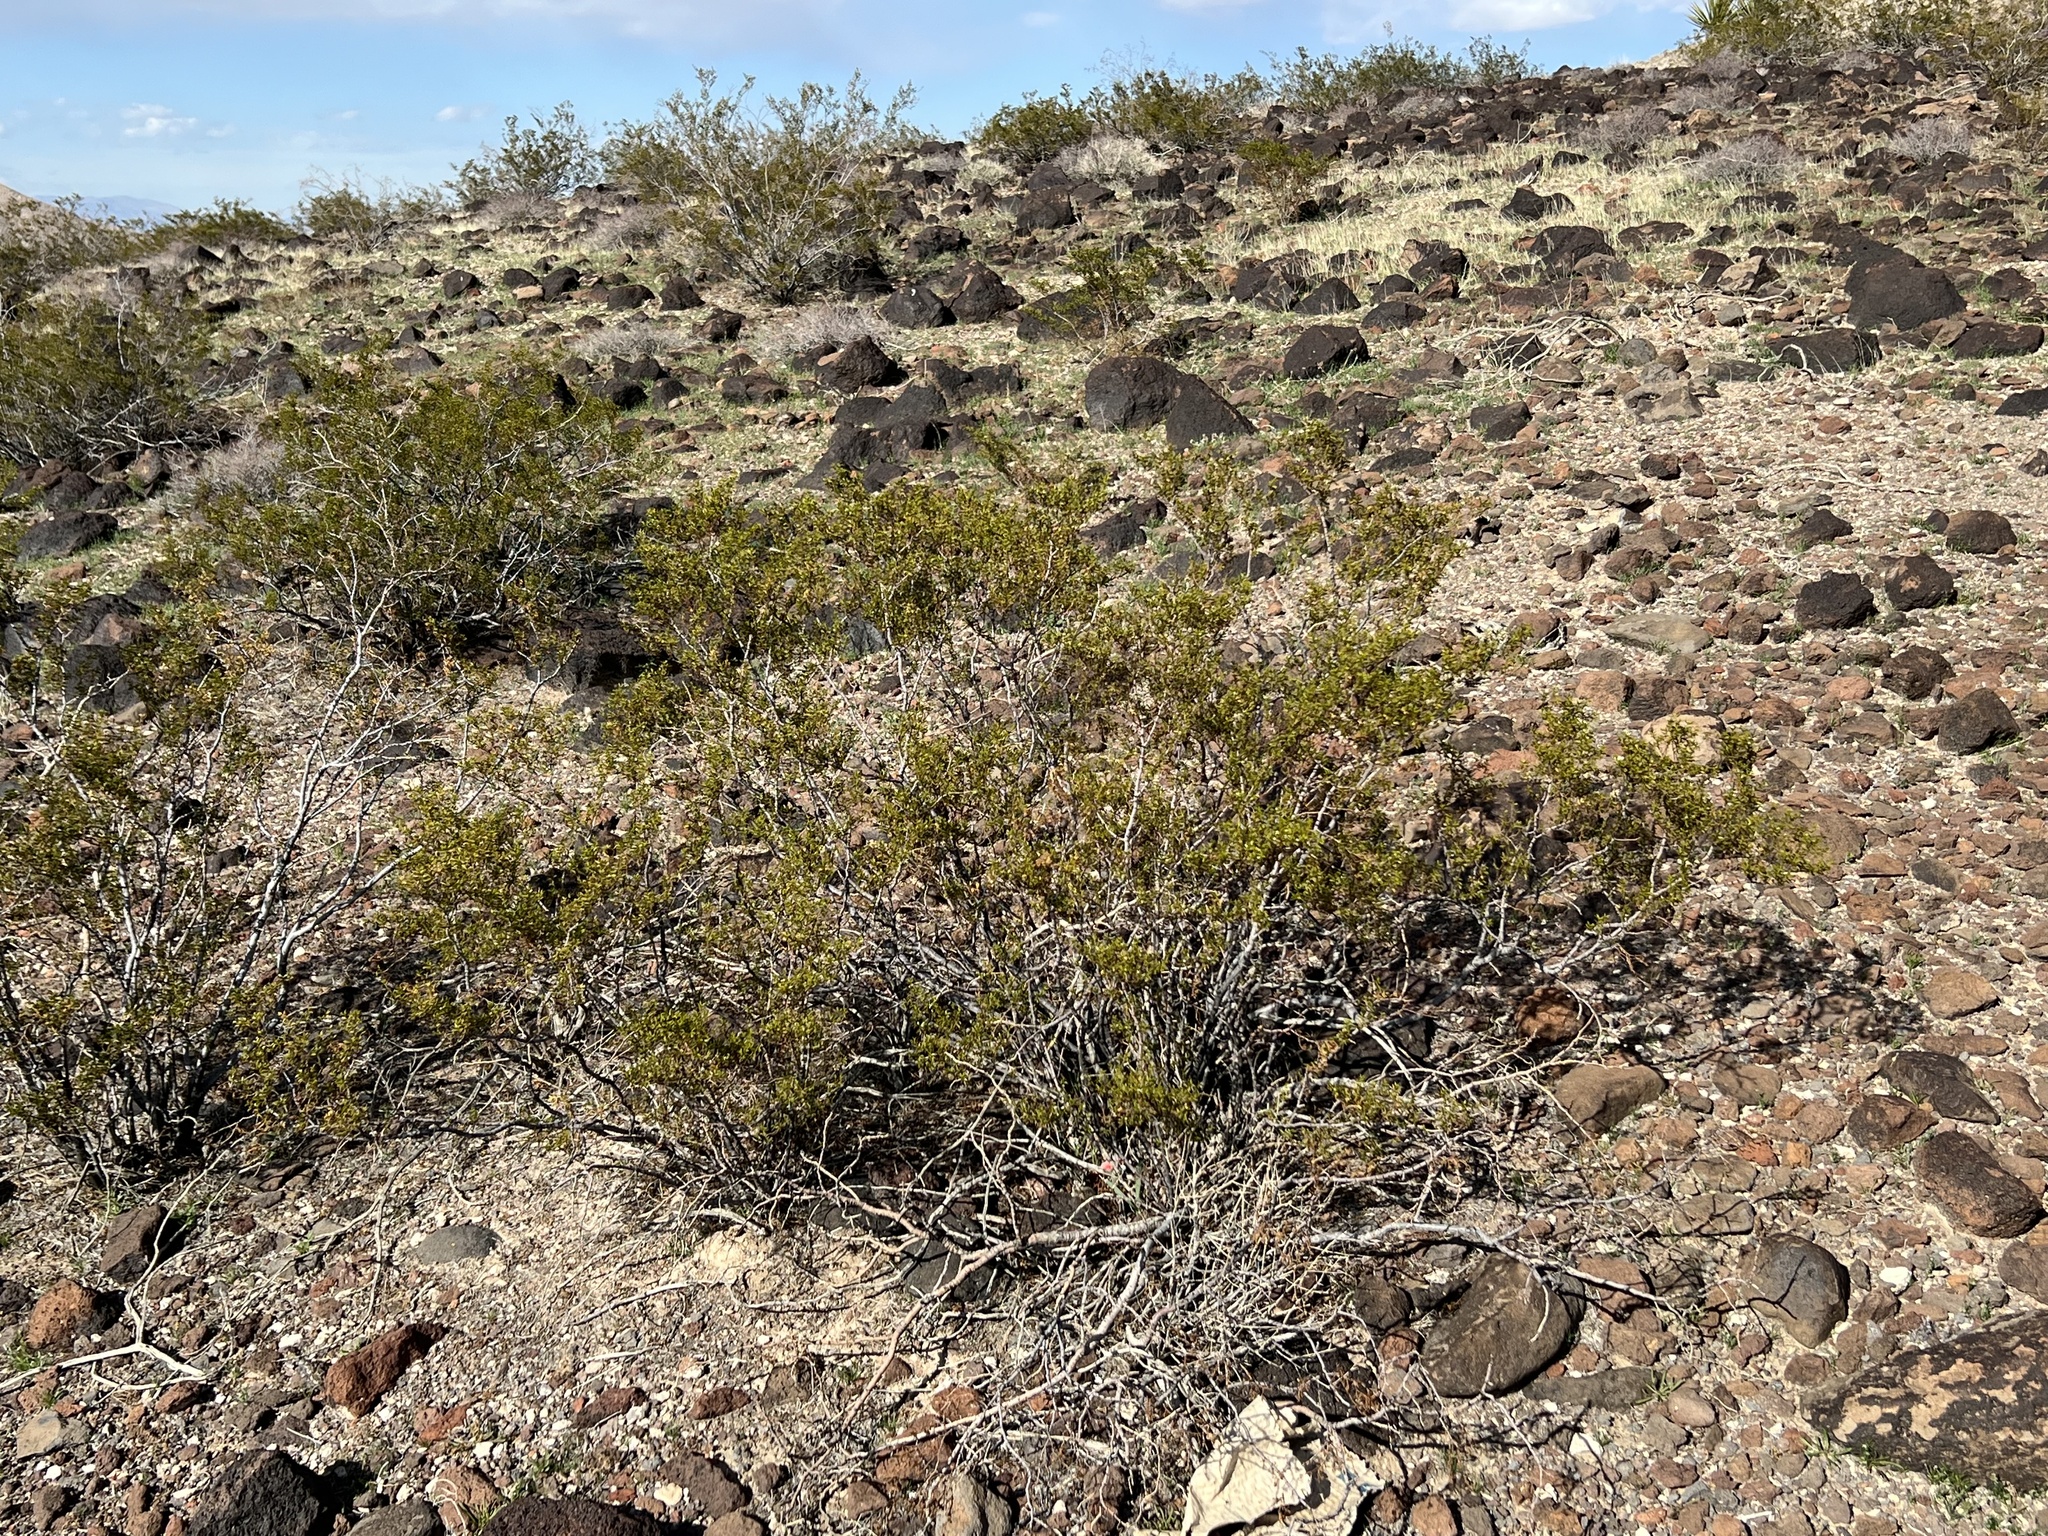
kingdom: Plantae
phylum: Tracheophyta
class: Magnoliopsida
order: Zygophyllales
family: Zygophyllaceae
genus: Larrea
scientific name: Larrea tridentata
